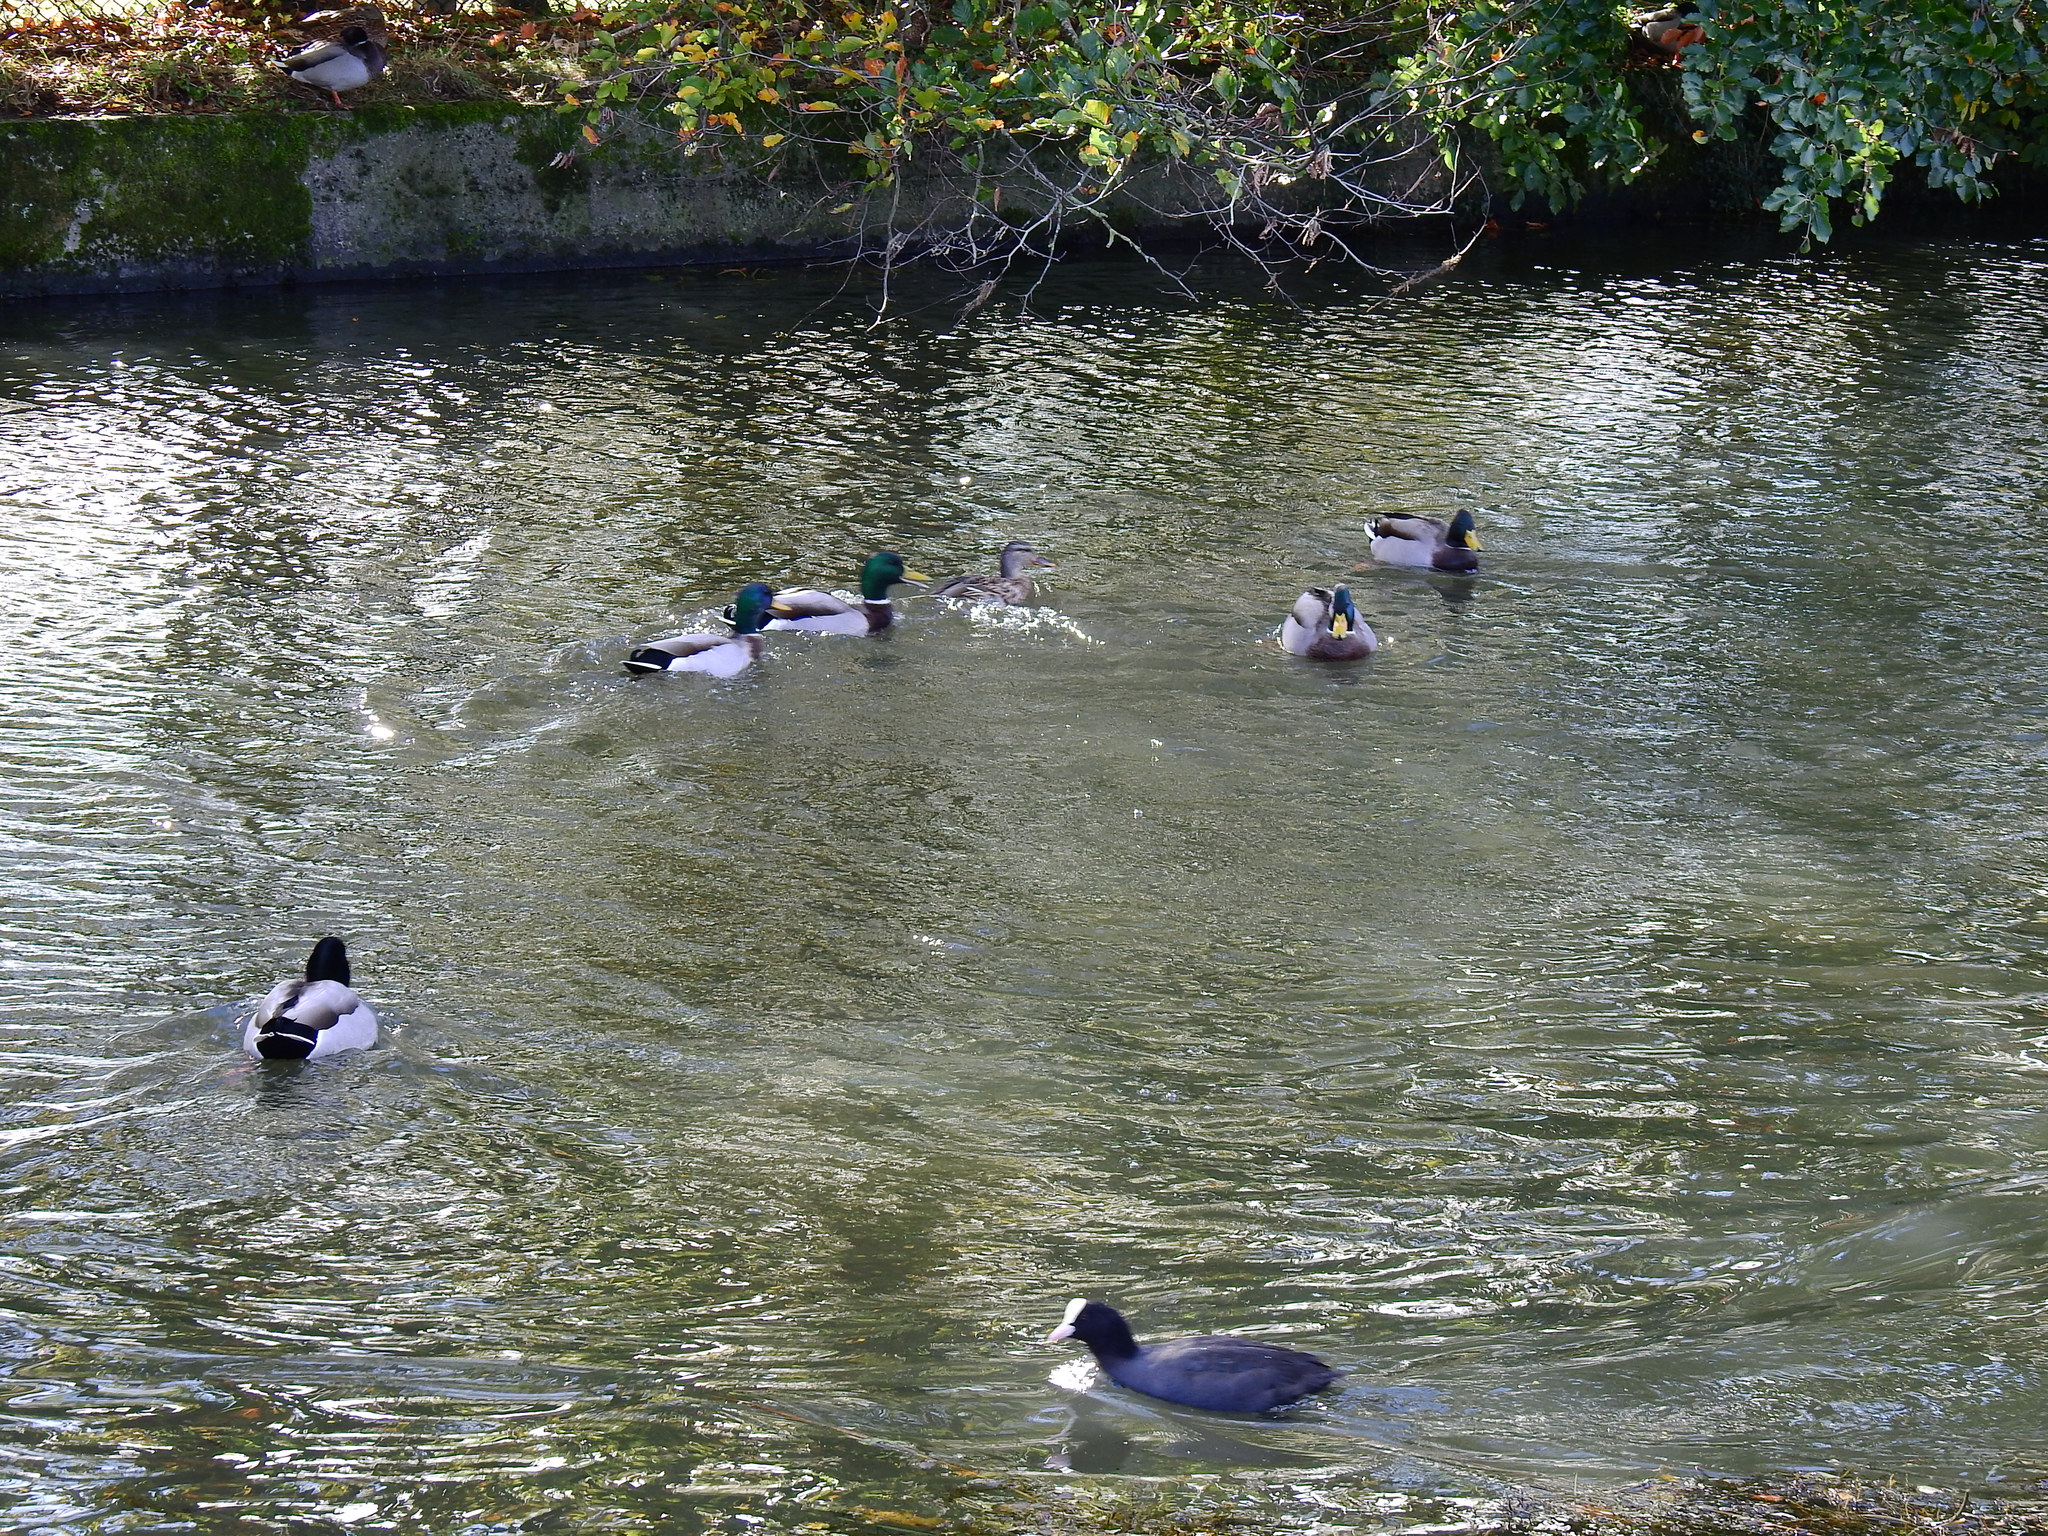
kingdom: Animalia
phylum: Chordata
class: Aves
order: Gruiformes
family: Rallidae
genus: Fulica
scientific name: Fulica atra
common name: Eurasian coot
